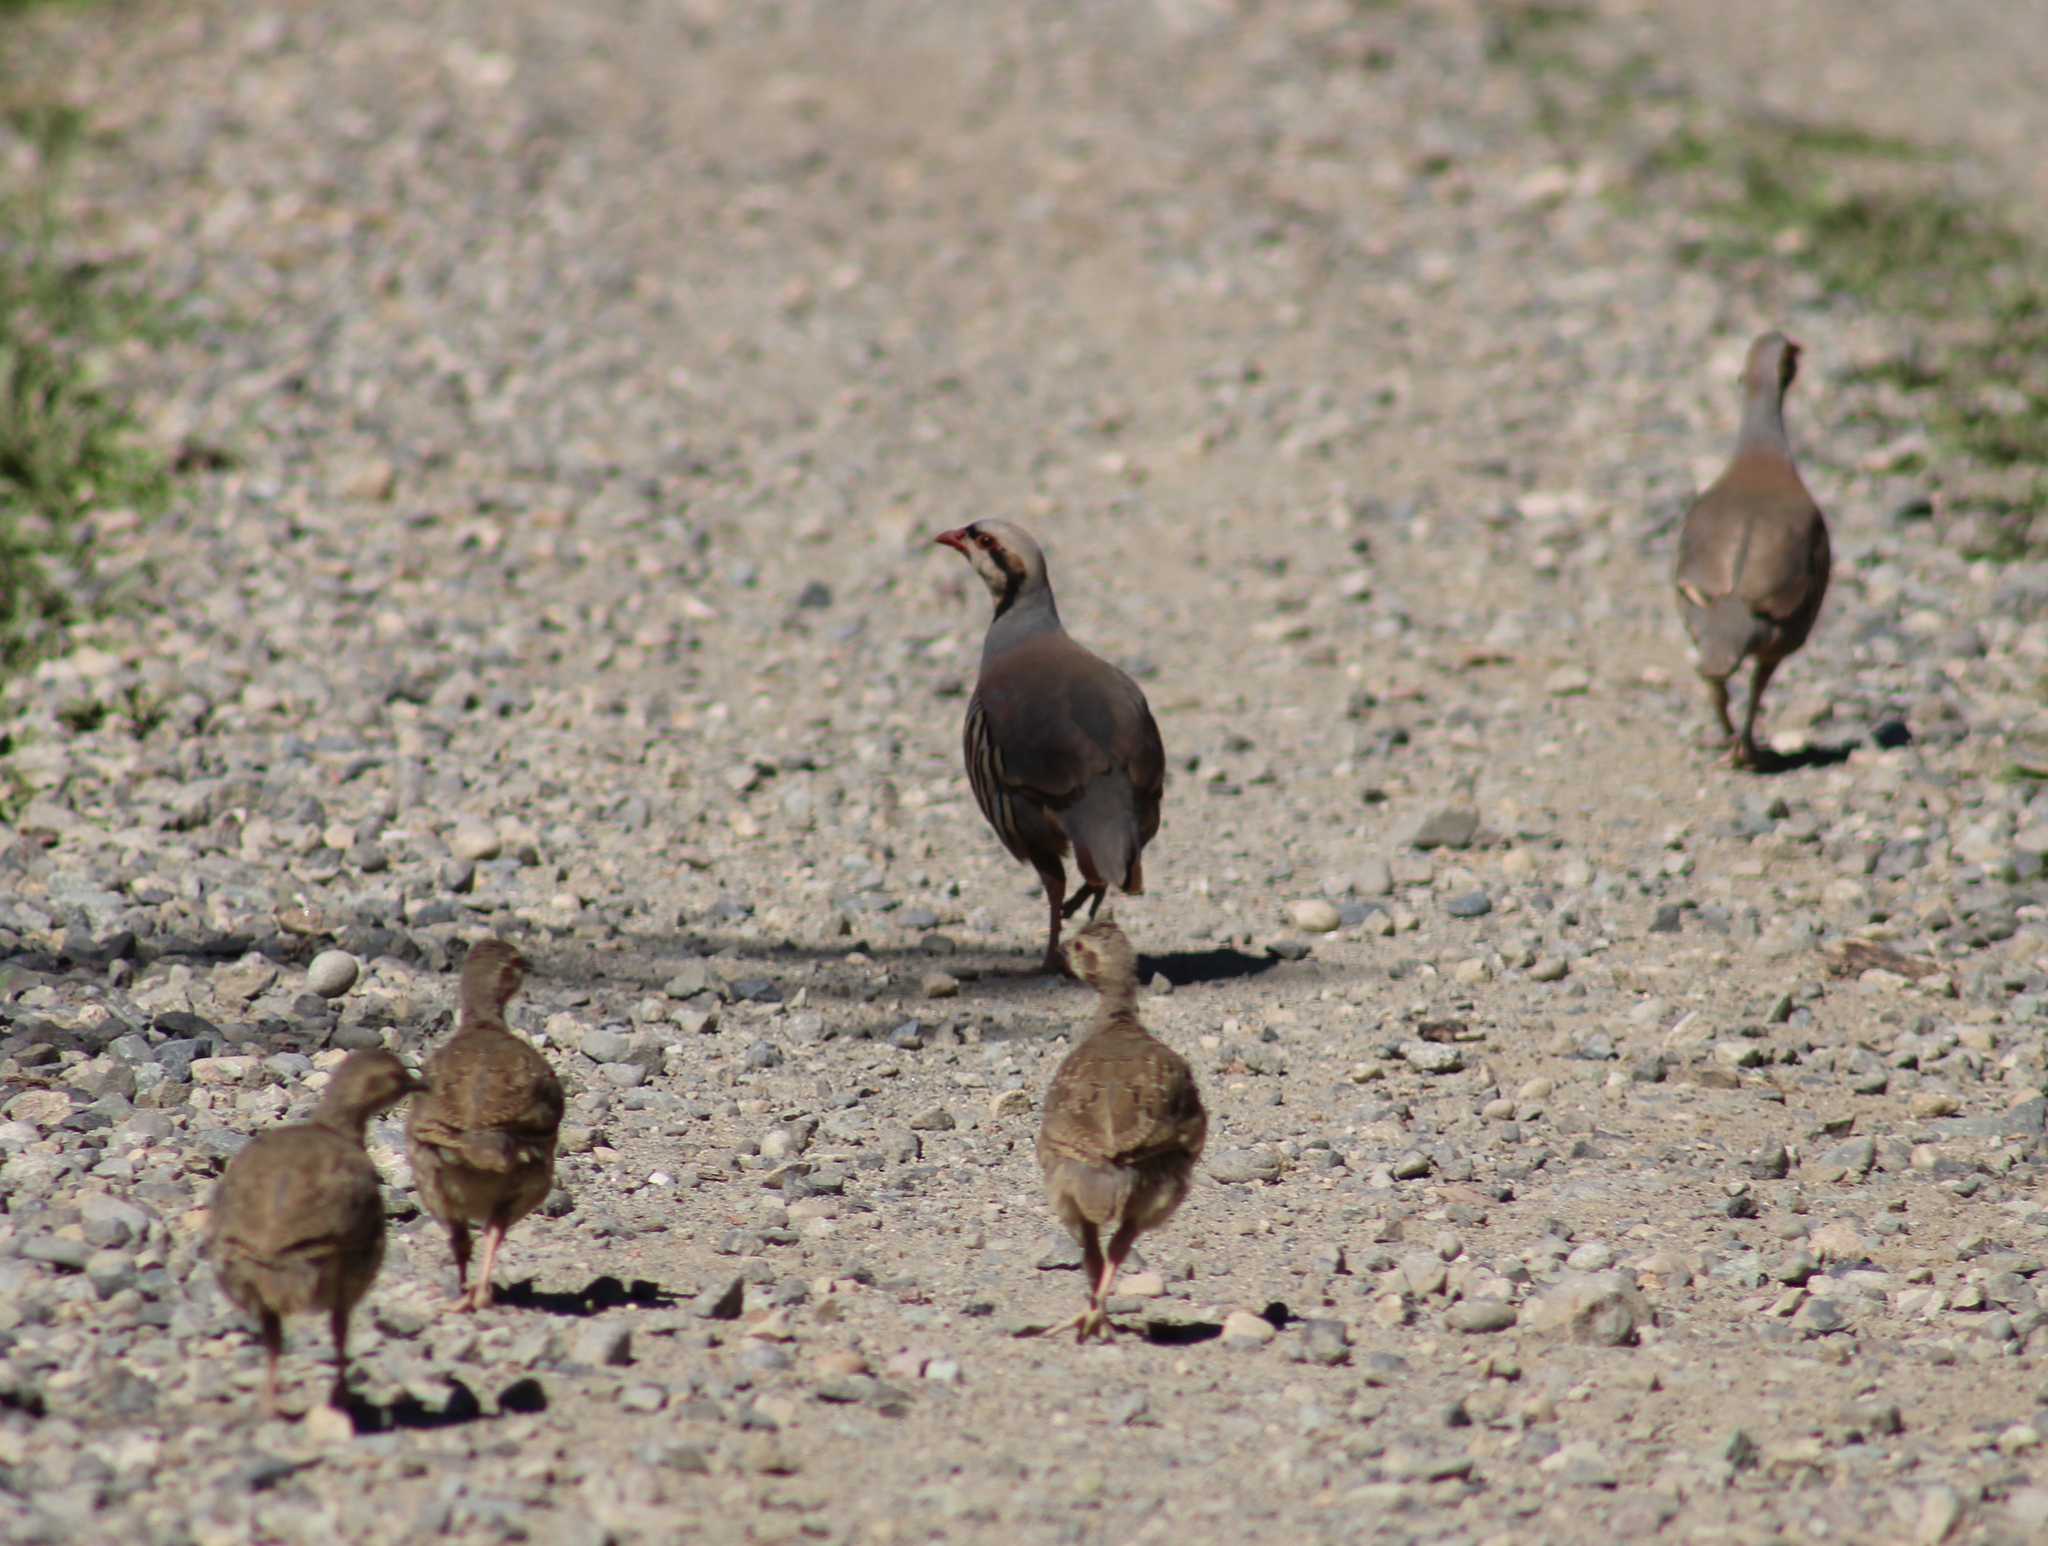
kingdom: Animalia
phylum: Chordata
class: Aves
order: Galliformes
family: Phasianidae
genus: Alectoris
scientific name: Alectoris chukar
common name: Chukar
